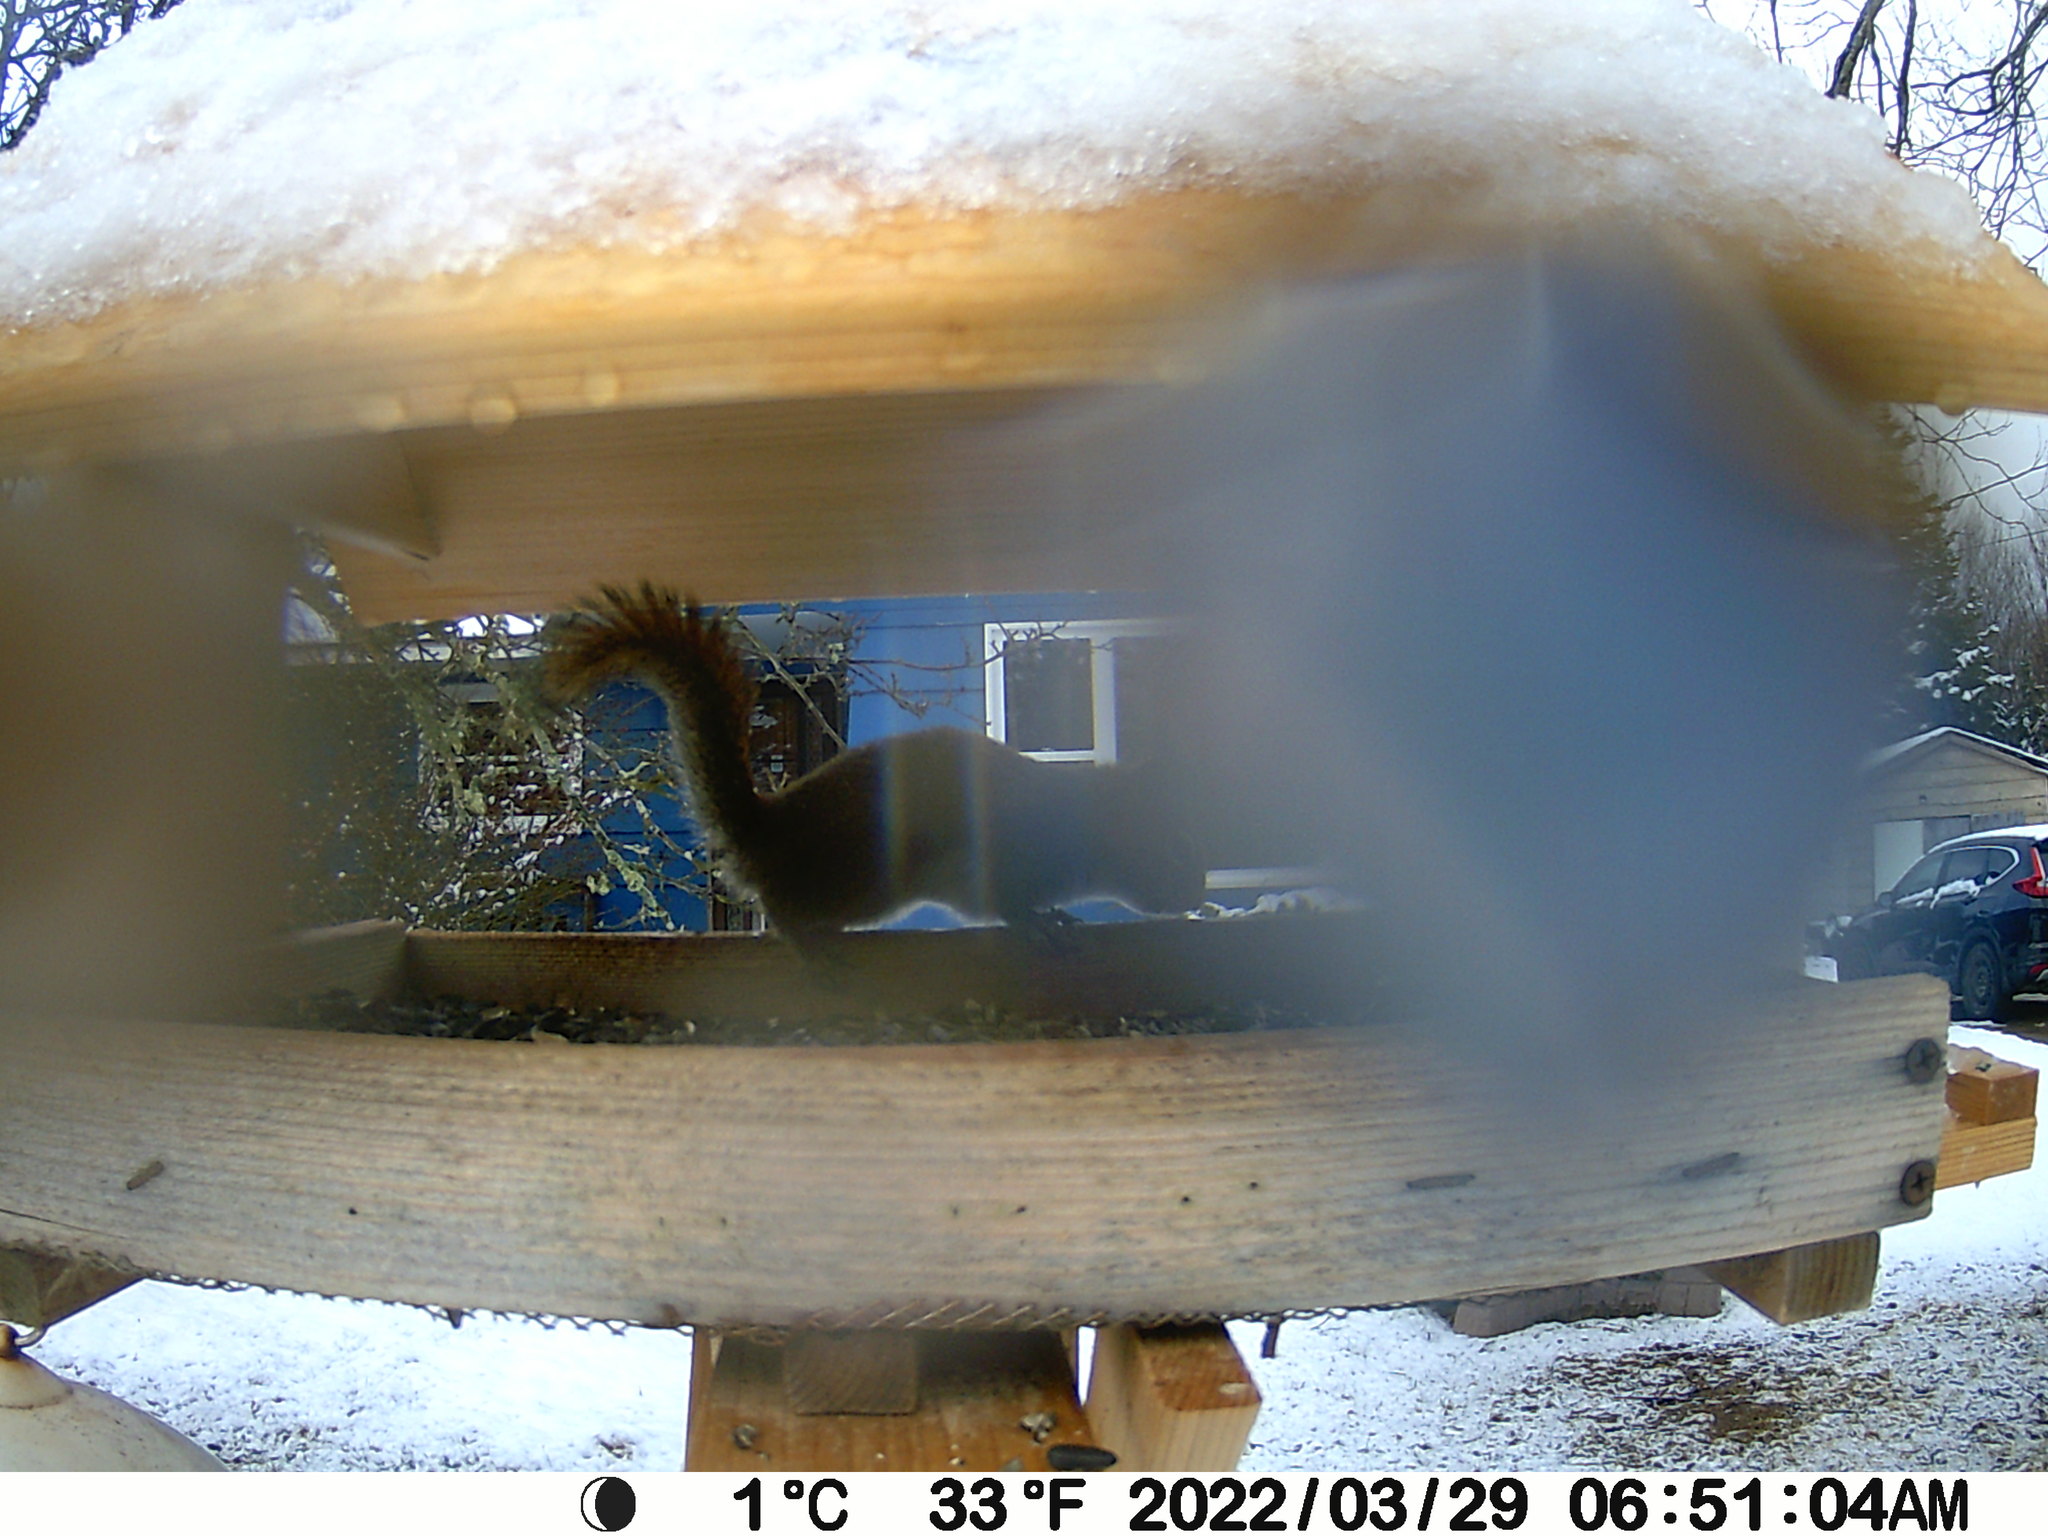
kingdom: Animalia
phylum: Chordata
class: Mammalia
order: Rodentia
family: Sciuridae
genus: Tamiasciurus
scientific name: Tamiasciurus hudsonicus
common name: Red squirrel
